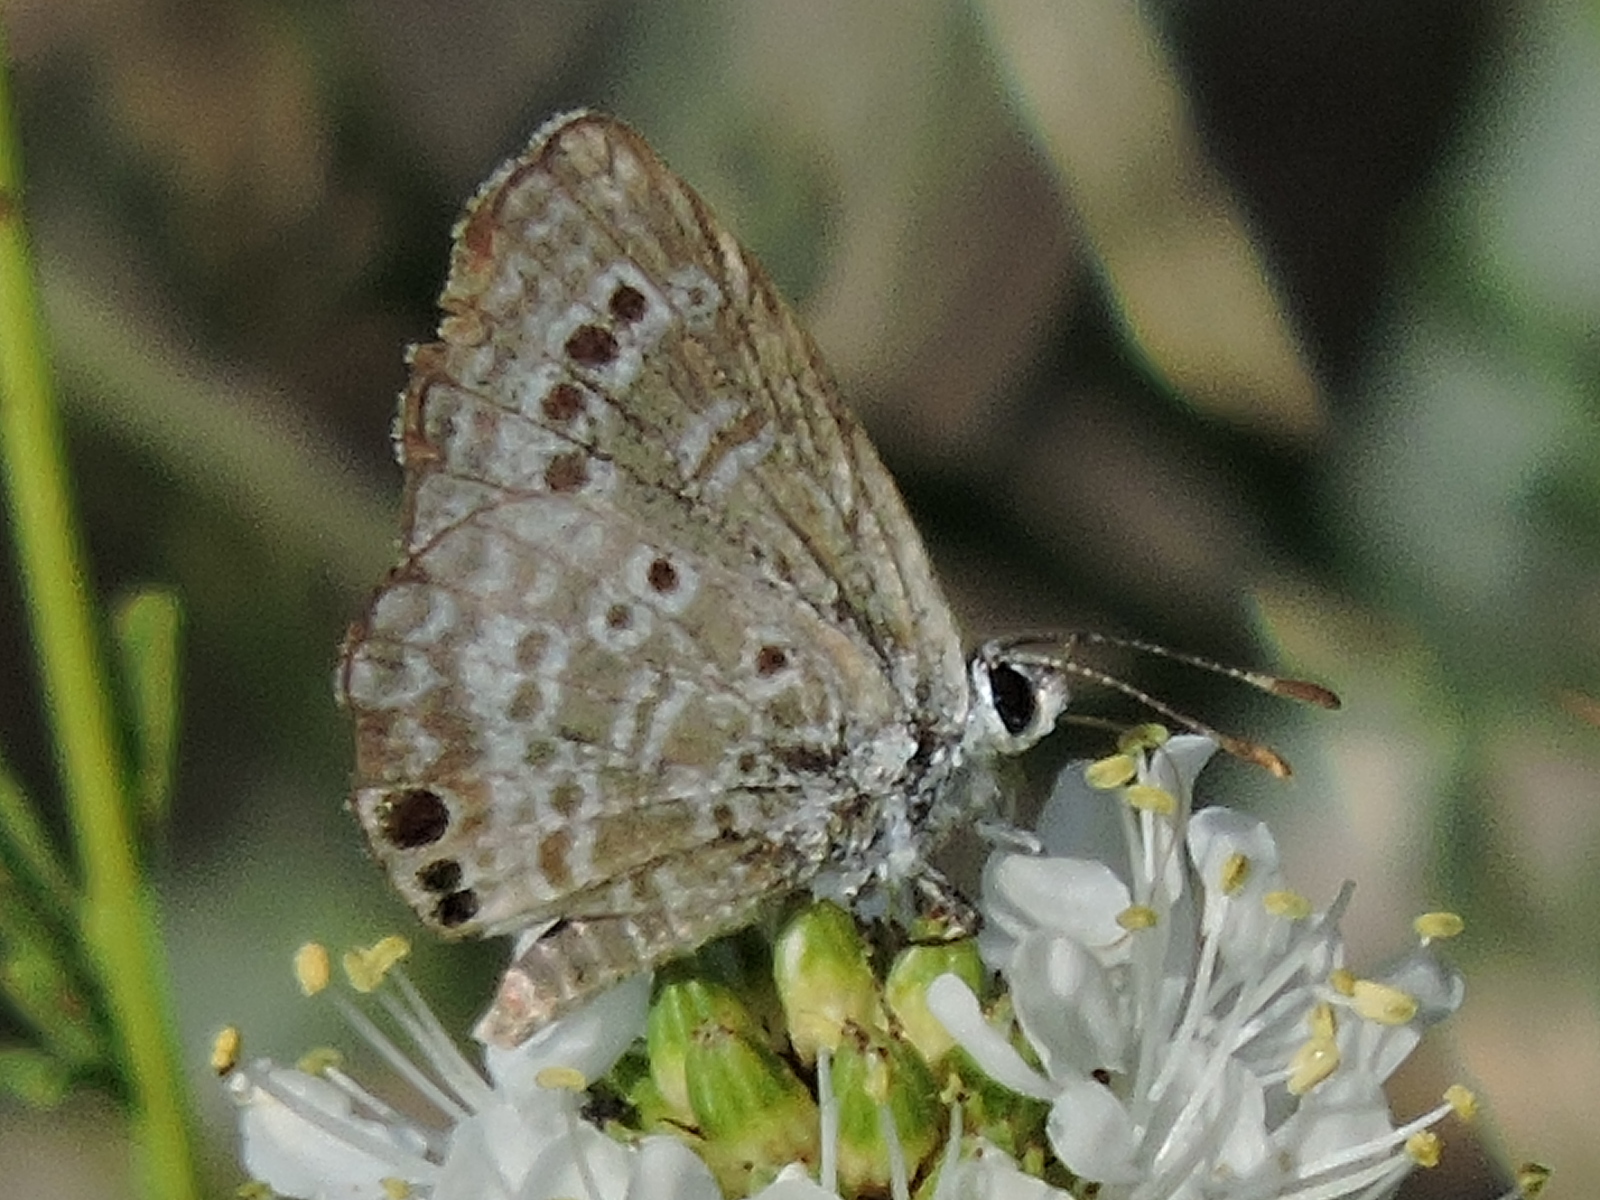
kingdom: Animalia
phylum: Arthropoda
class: Insecta
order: Lepidoptera
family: Lycaenidae
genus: Echinargus
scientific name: Echinargus isola
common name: Reakirt's blue
